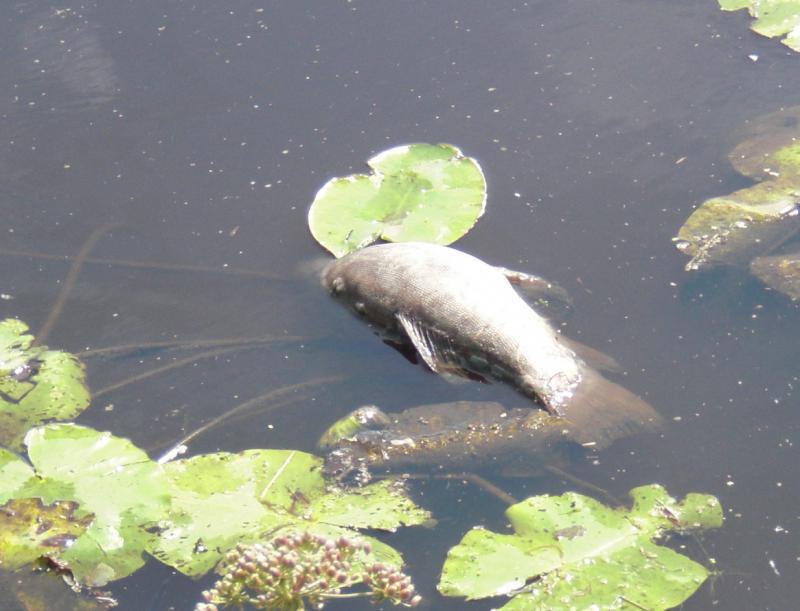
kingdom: Animalia
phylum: Chordata
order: Esociformes
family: Esocidae
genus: Esox
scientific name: Esox lucius
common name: Northern pike
